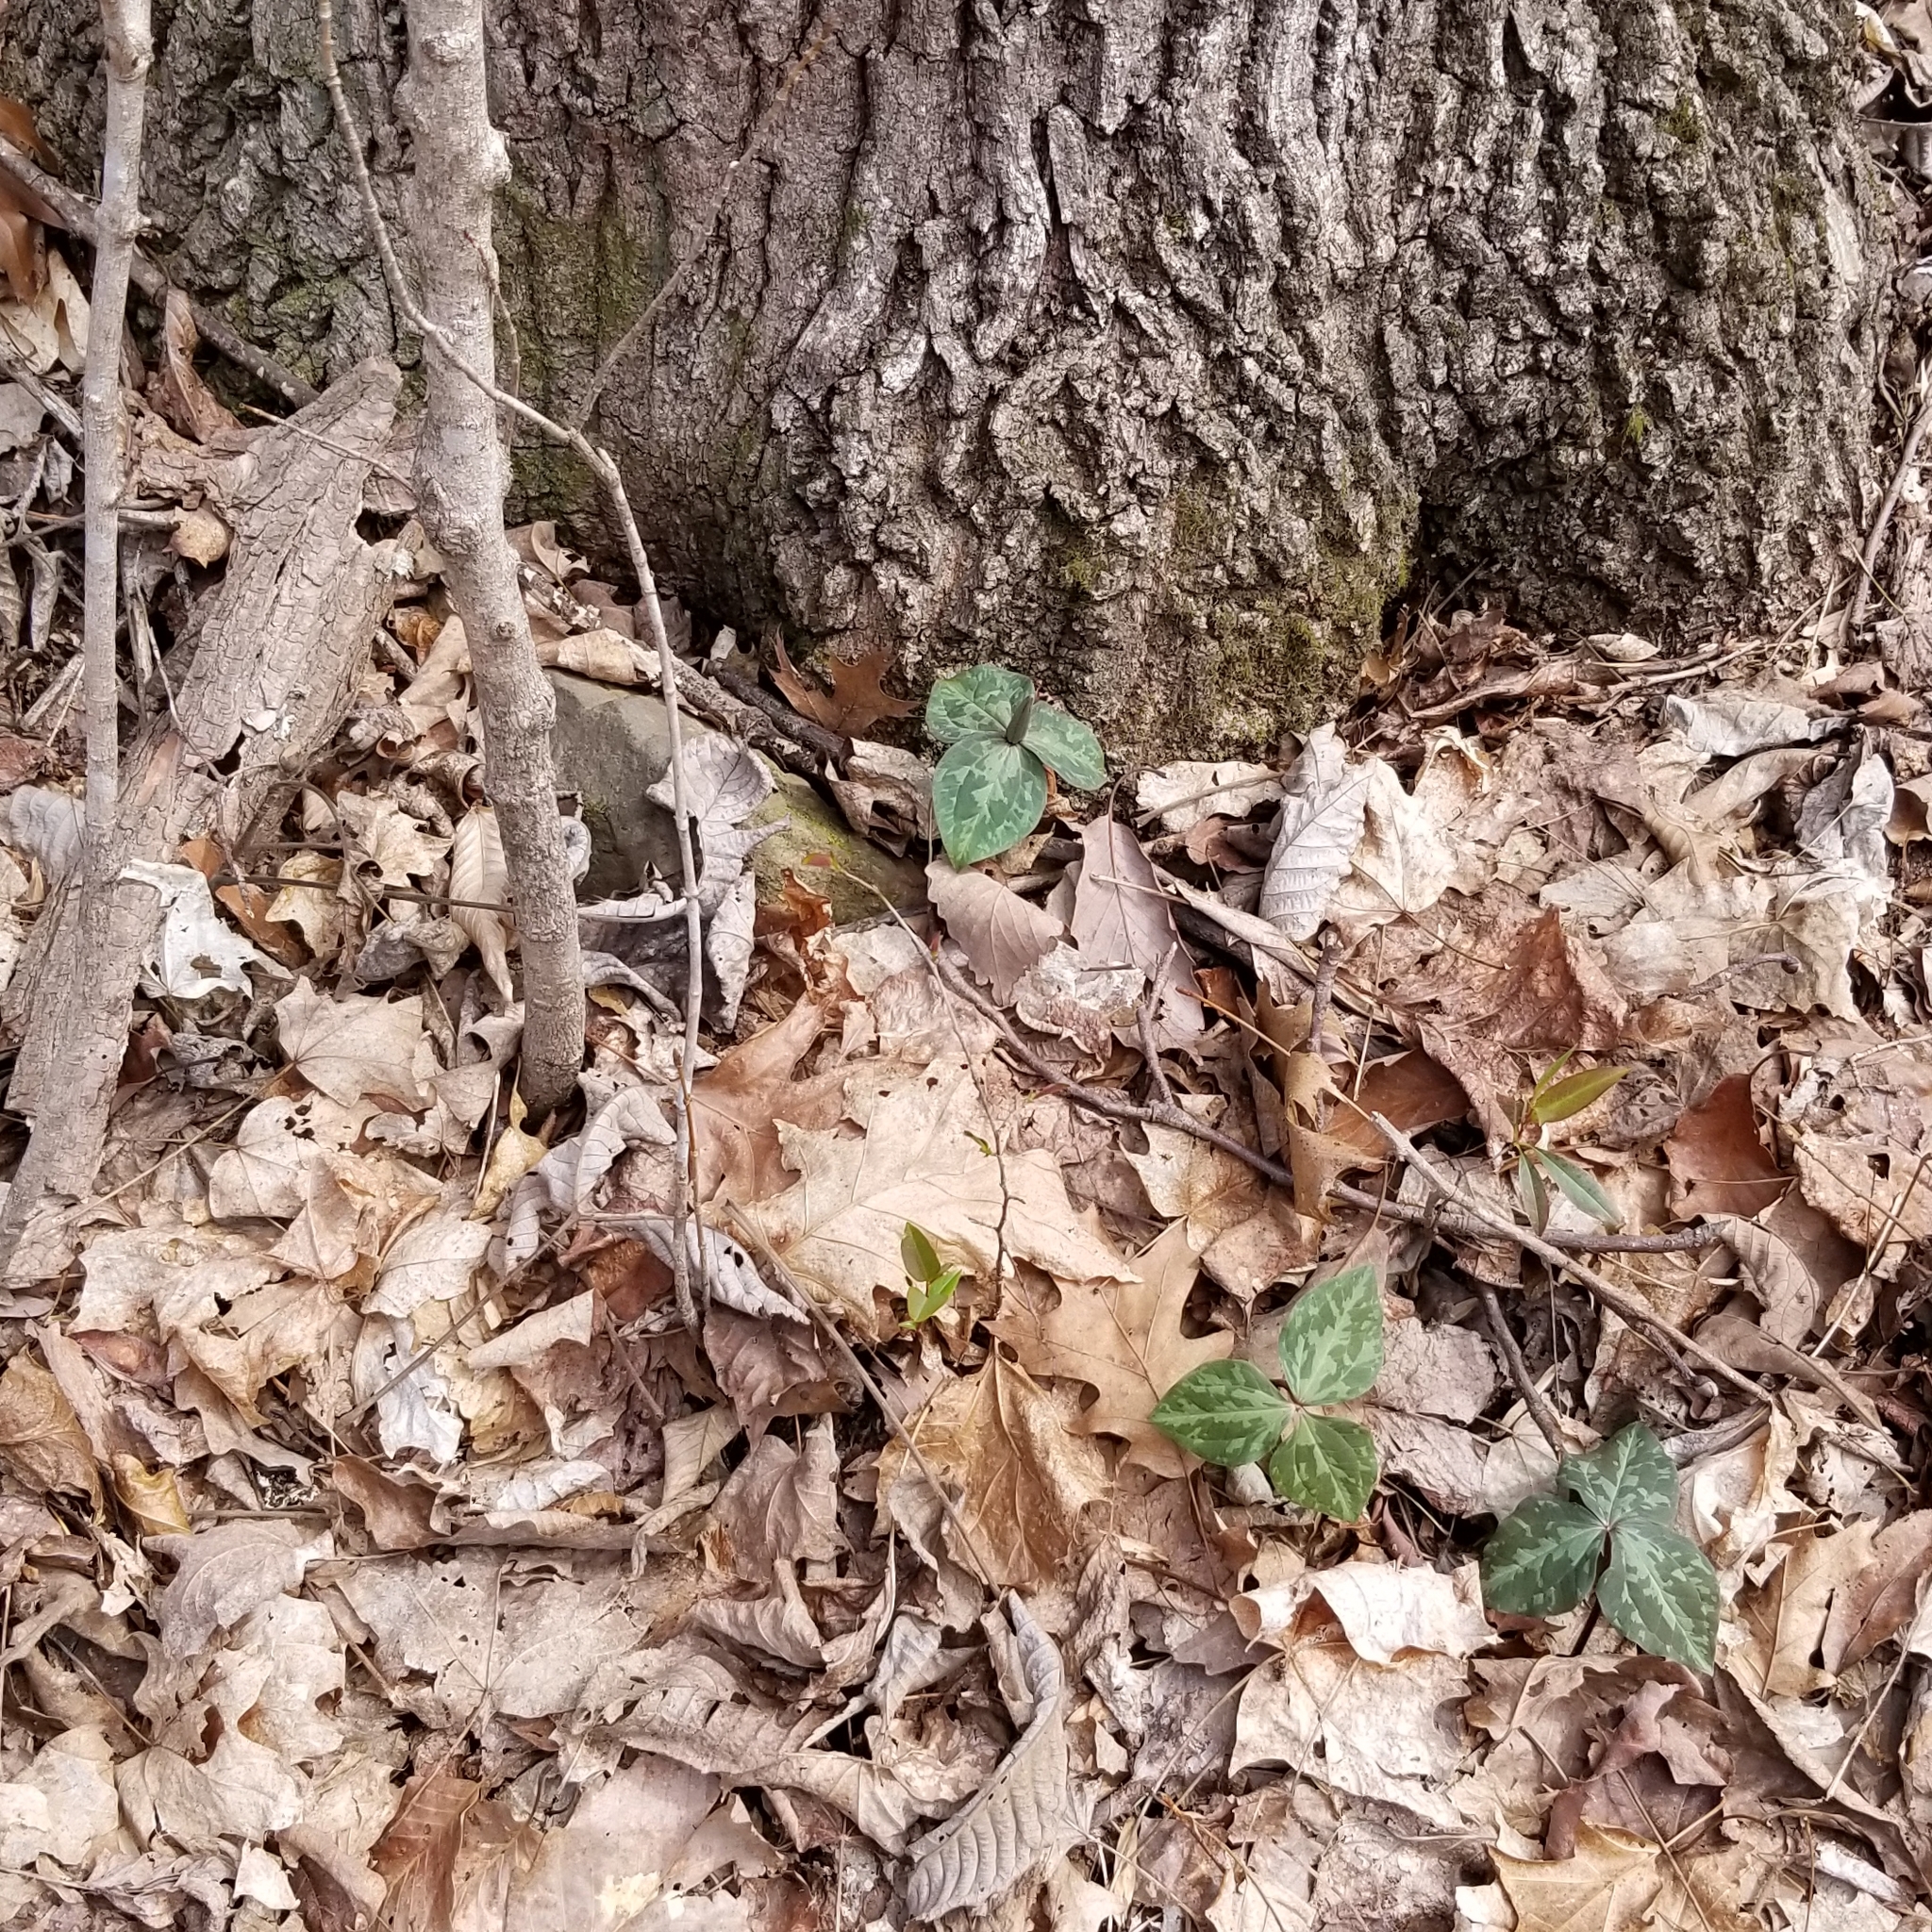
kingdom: Plantae
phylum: Tracheophyta
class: Liliopsida
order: Liliales
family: Melanthiaceae
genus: Trillium
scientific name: Trillium cuneatum
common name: Cuneate trillium
